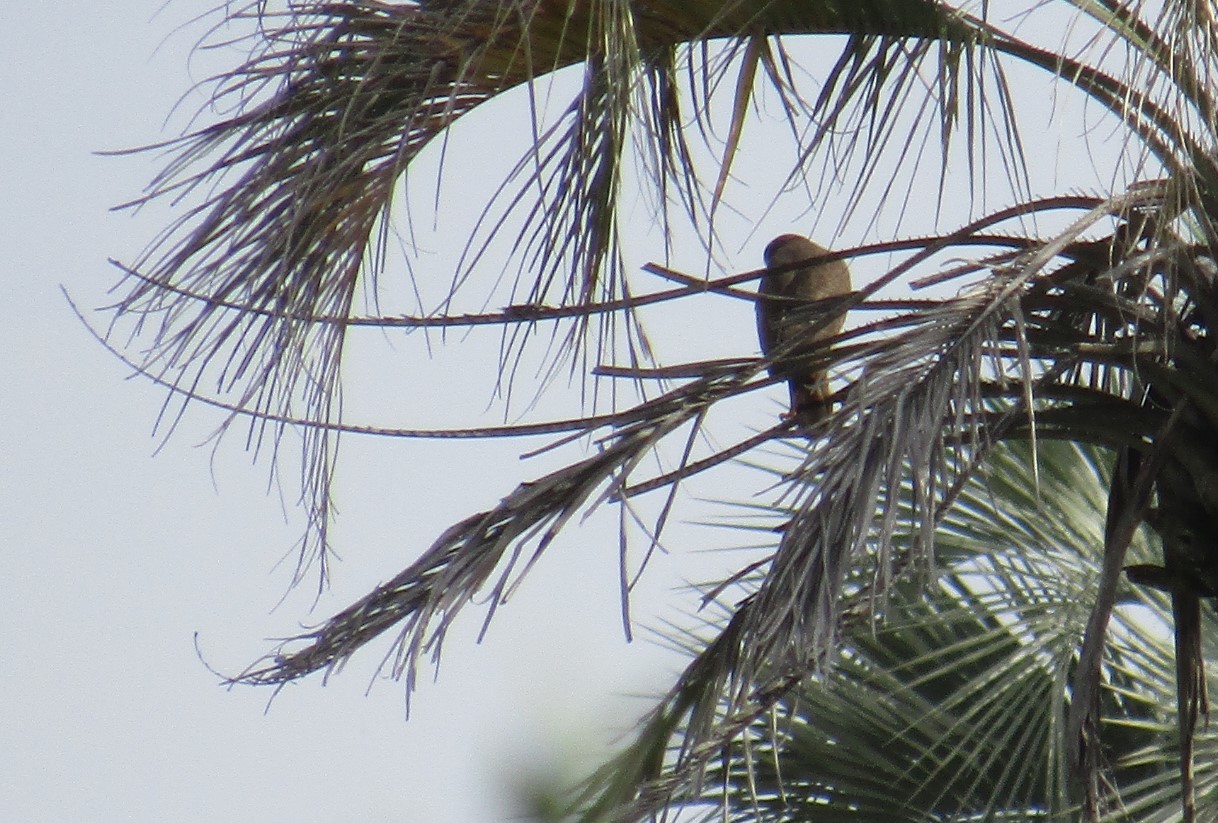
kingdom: Animalia
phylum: Chordata
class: Aves
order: Accipitriformes
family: Accipitridae
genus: Rupornis
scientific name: Rupornis magnirostris
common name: Roadside hawk
